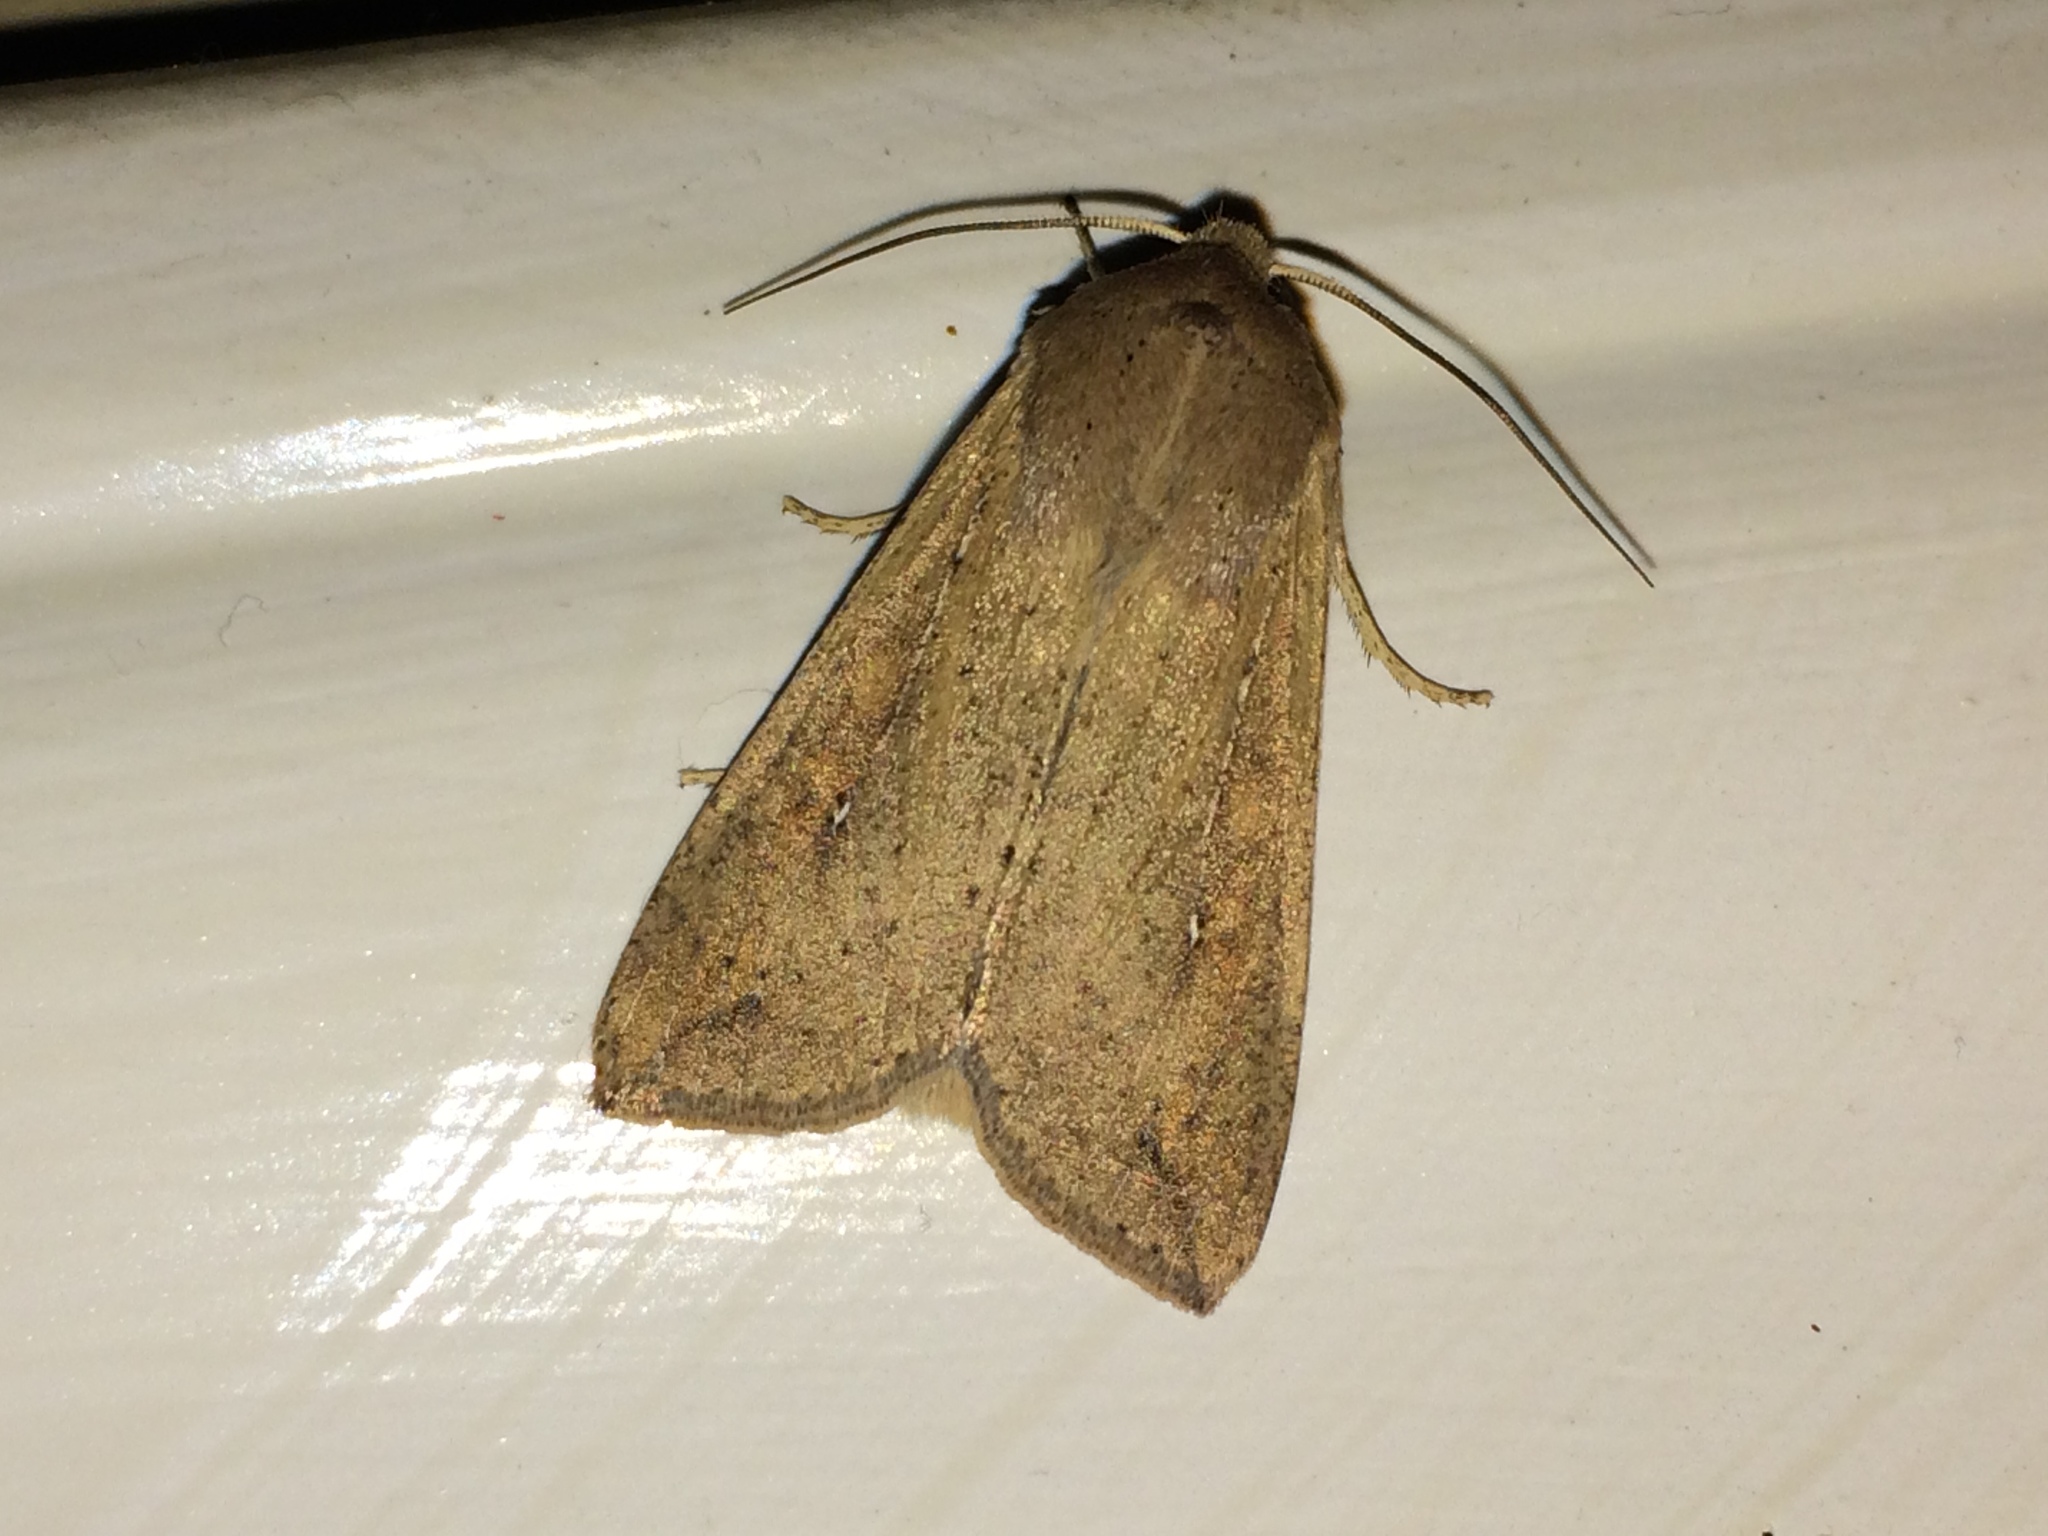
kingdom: Animalia
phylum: Arthropoda
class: Insecta
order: Lepidoptera
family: Noctuidae
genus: Mythimna
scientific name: Mythimna unipuncta
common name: White-speck
